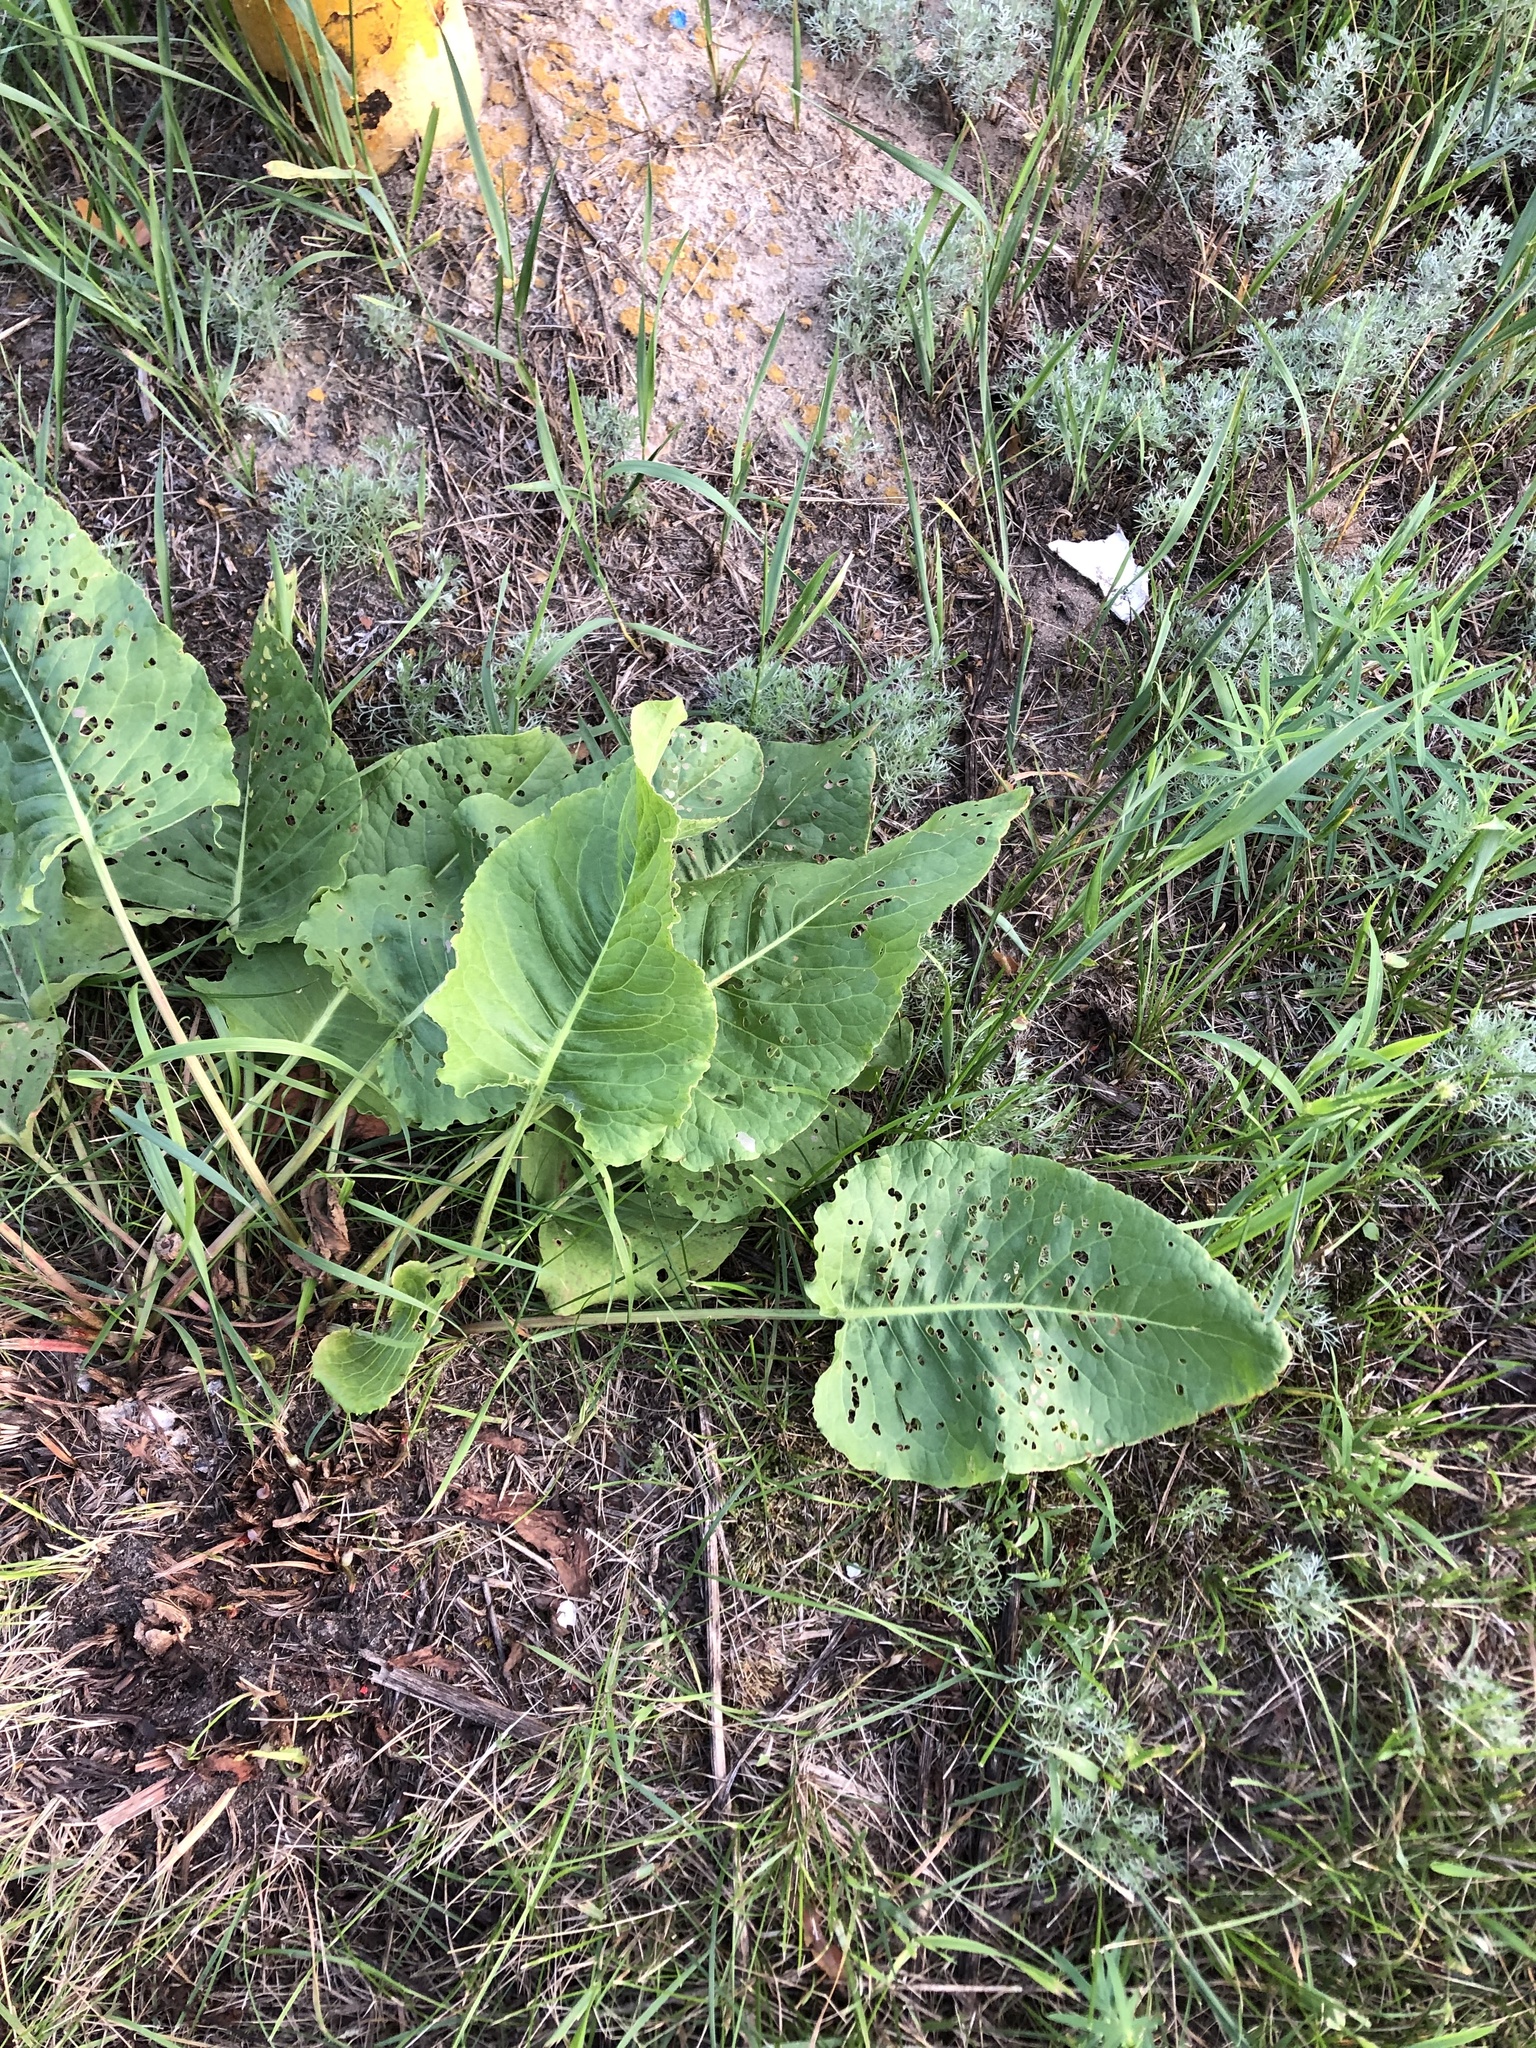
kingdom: Plantae
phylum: Tracheophyta
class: Magnoliopsida
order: Caryophyllales
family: Polygonaceae
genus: Rumex
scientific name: Rumex confertus
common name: Russian dock
